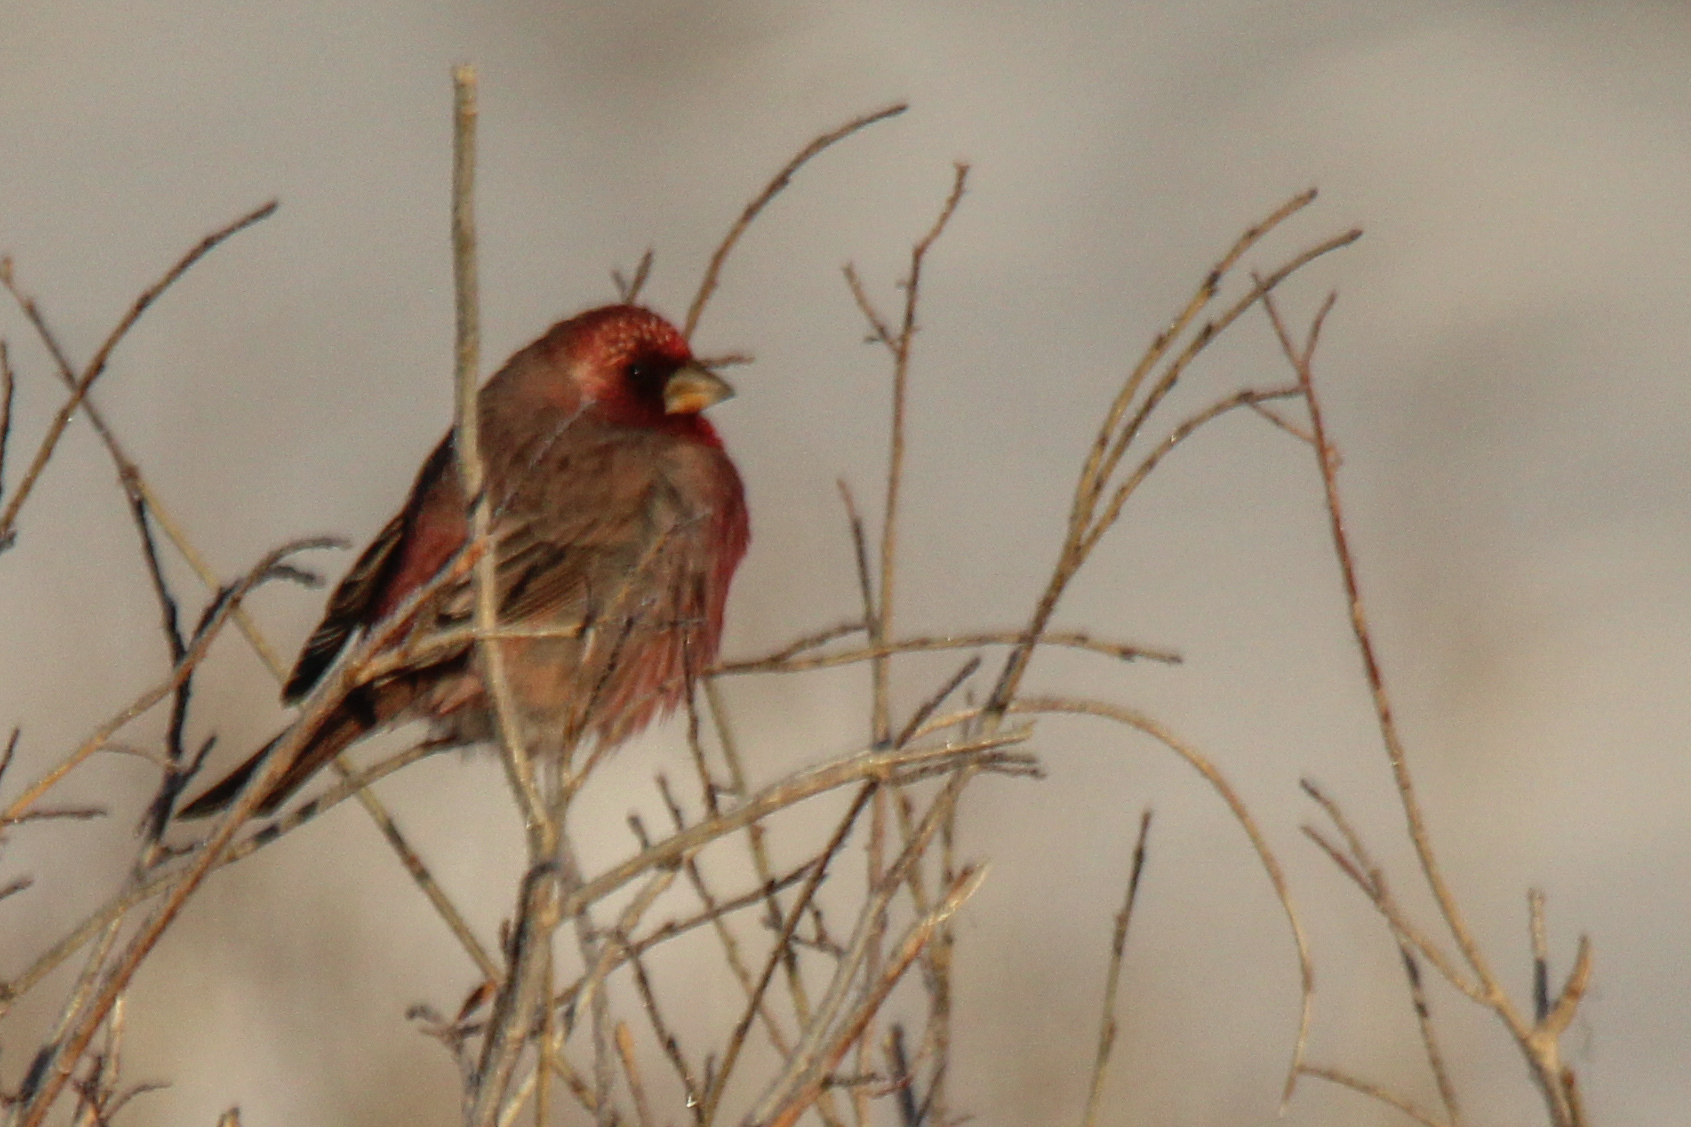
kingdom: Animalia
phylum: Chordata
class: Aves
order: Passeriformes
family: Fringillidae
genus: Carpodacus
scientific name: Carpodacus rubicilla
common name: Great rosefinch
